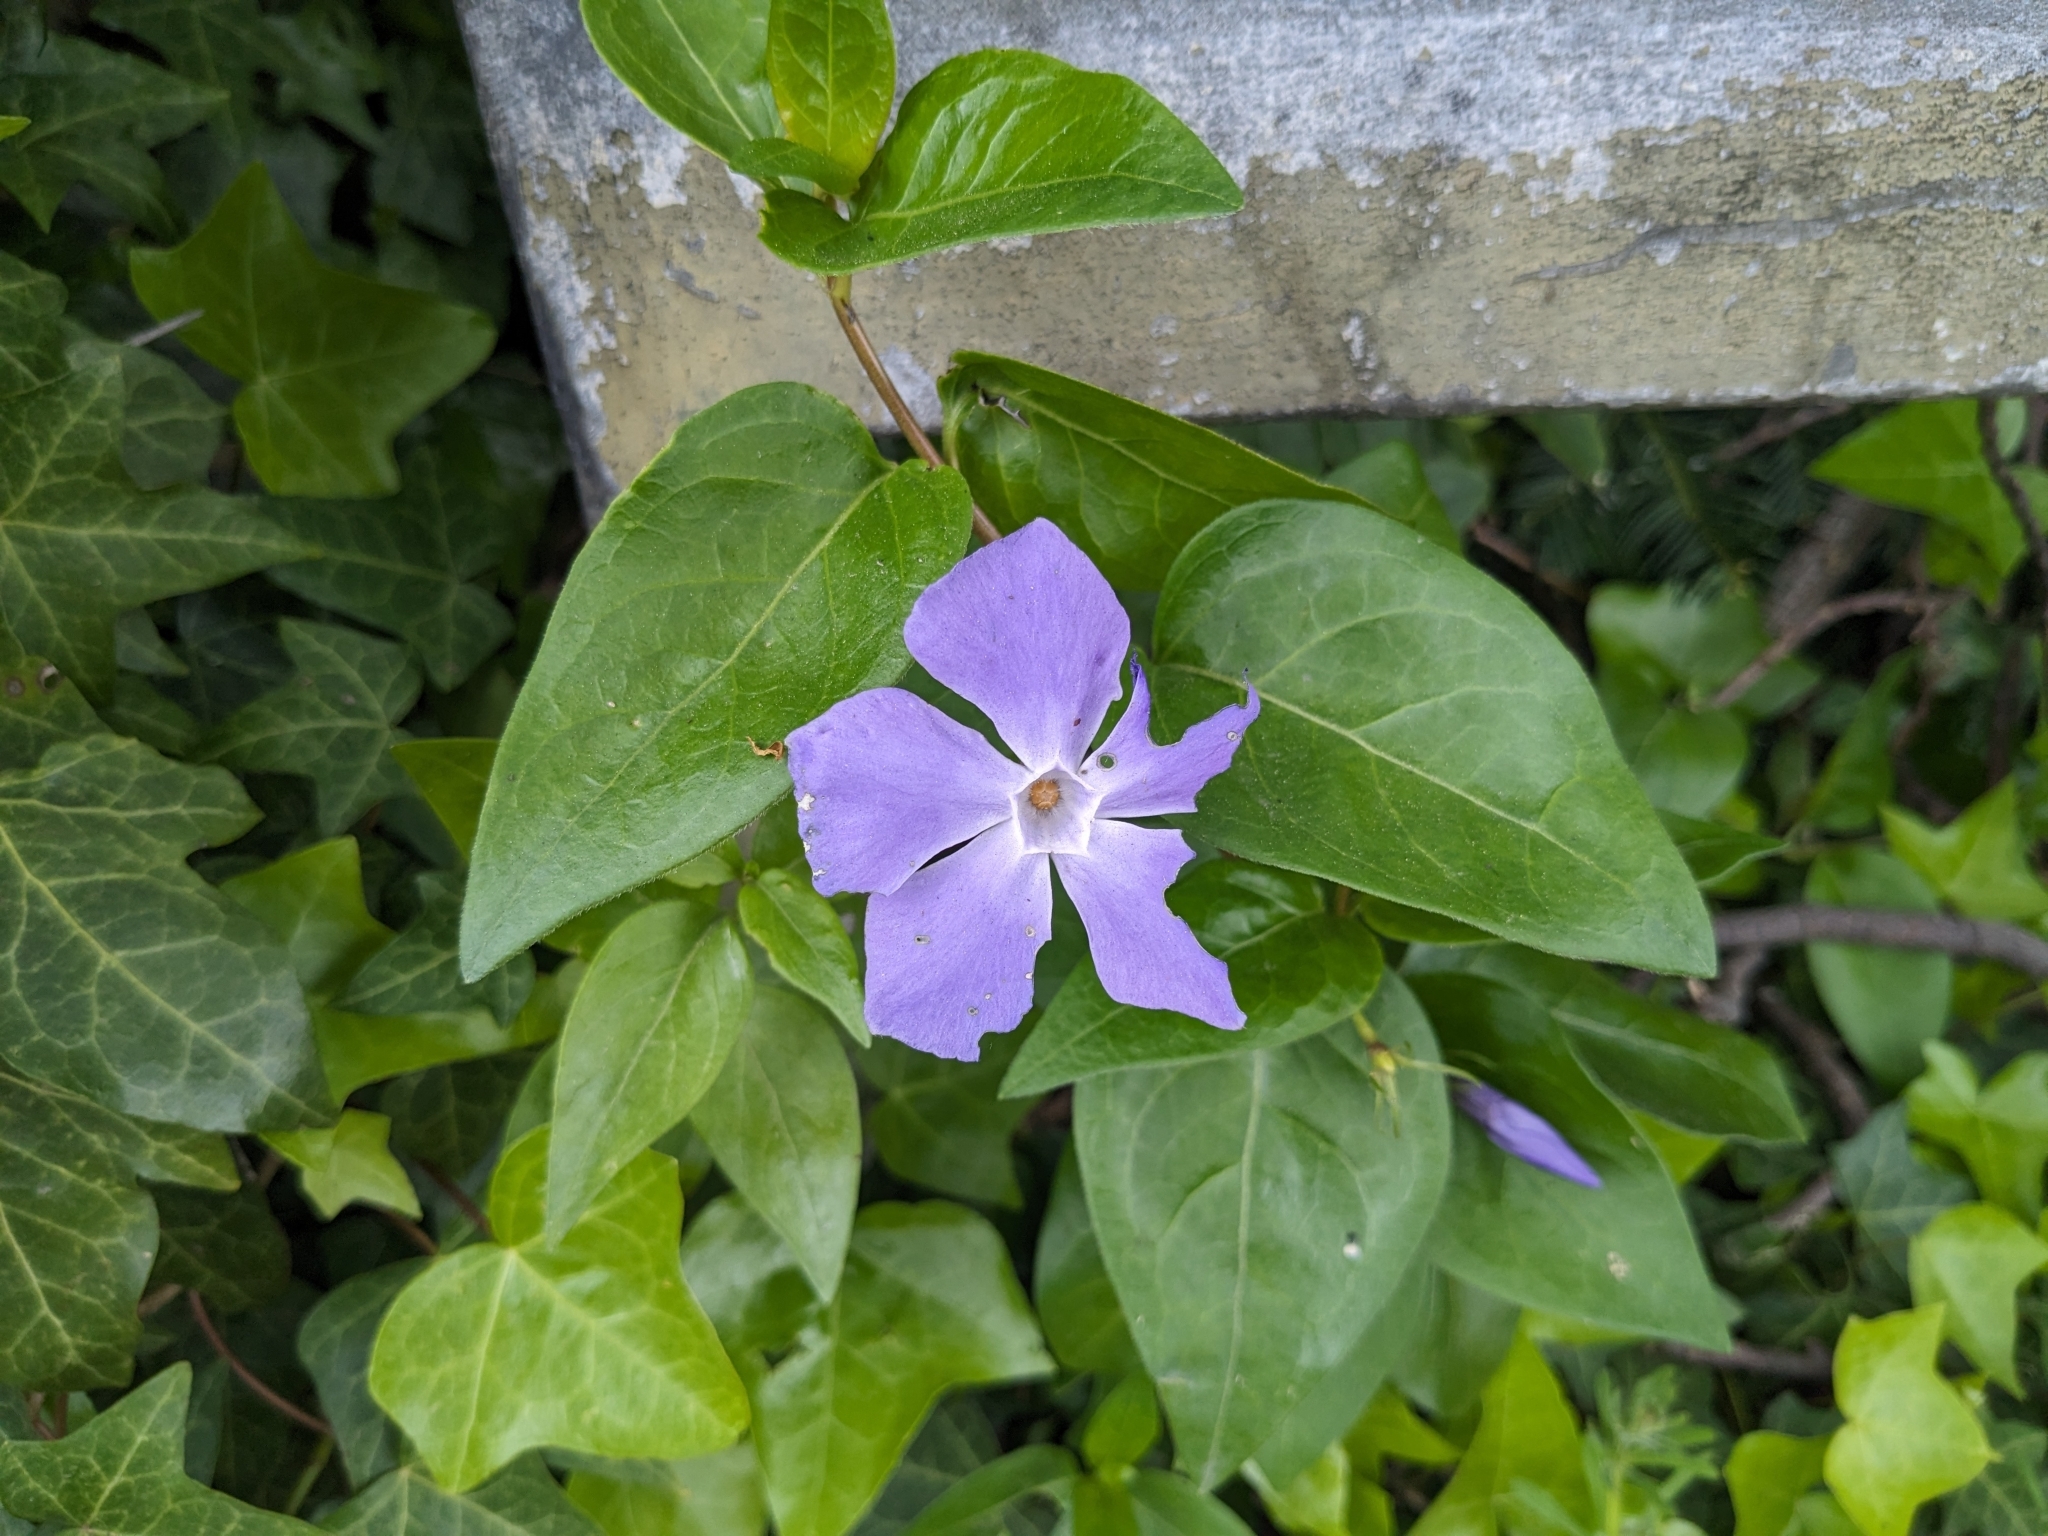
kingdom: Plantae
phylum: Tracheophyta
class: Magnoliopsida
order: Gentianales
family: Apocynaceae
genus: Vinca
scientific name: Vinca major
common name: Greater periwinkle
